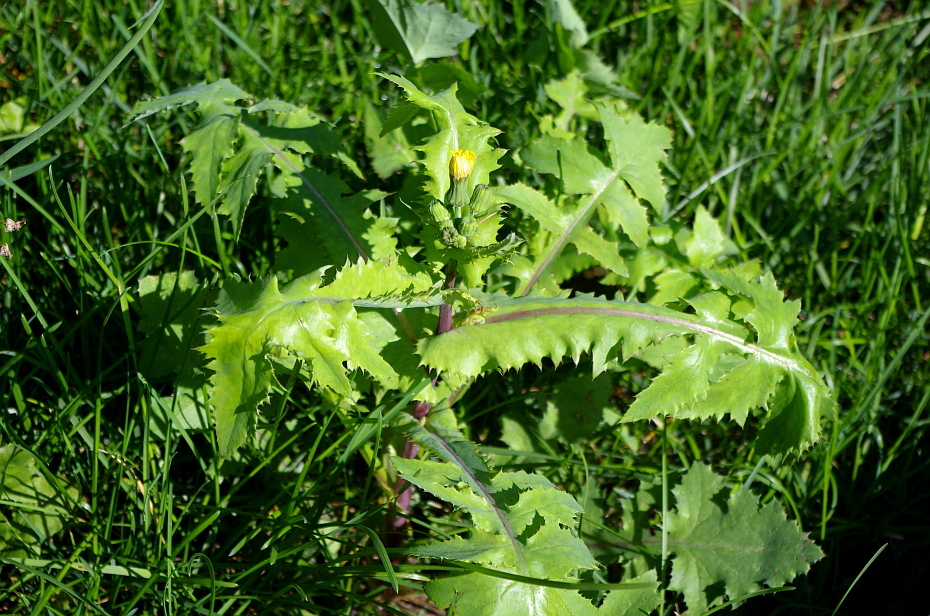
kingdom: Plantae
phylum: Tracheophyta
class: Magnoliopsida
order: Asterales
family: Asteraceae
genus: Sonchus
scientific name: Sonchus oleraceus
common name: Common sowthistle
